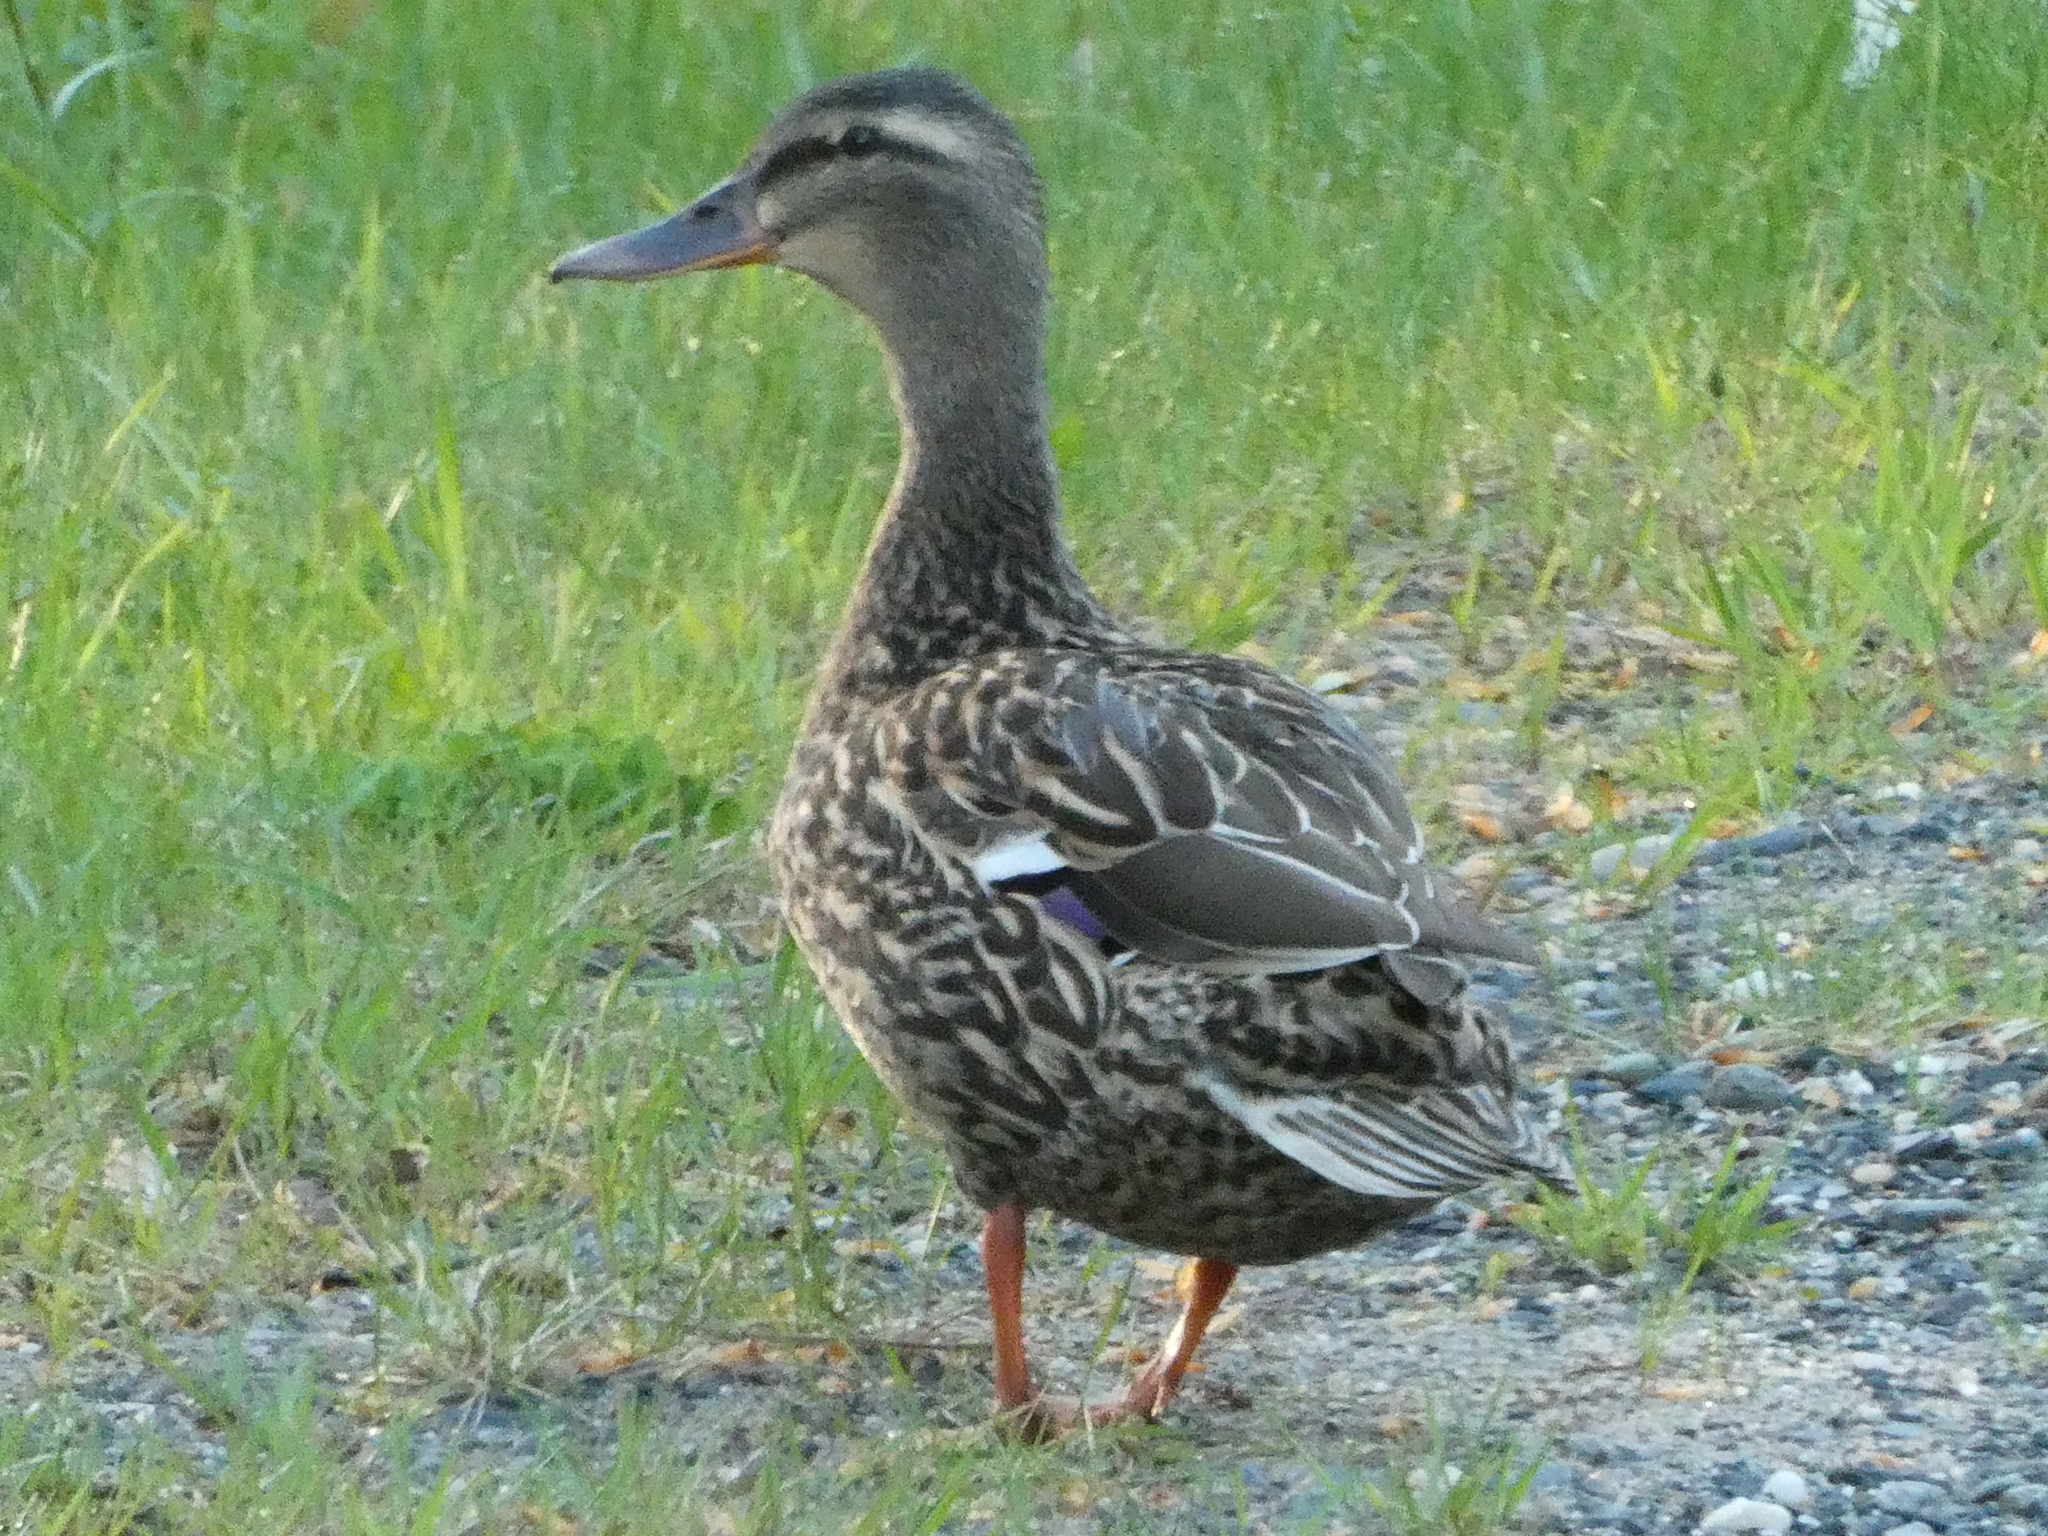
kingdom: Animalia
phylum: Chordata
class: Aves
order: Anseriformes
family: Anatidae
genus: Anas
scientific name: Anas platyrhynchos
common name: Mallard
